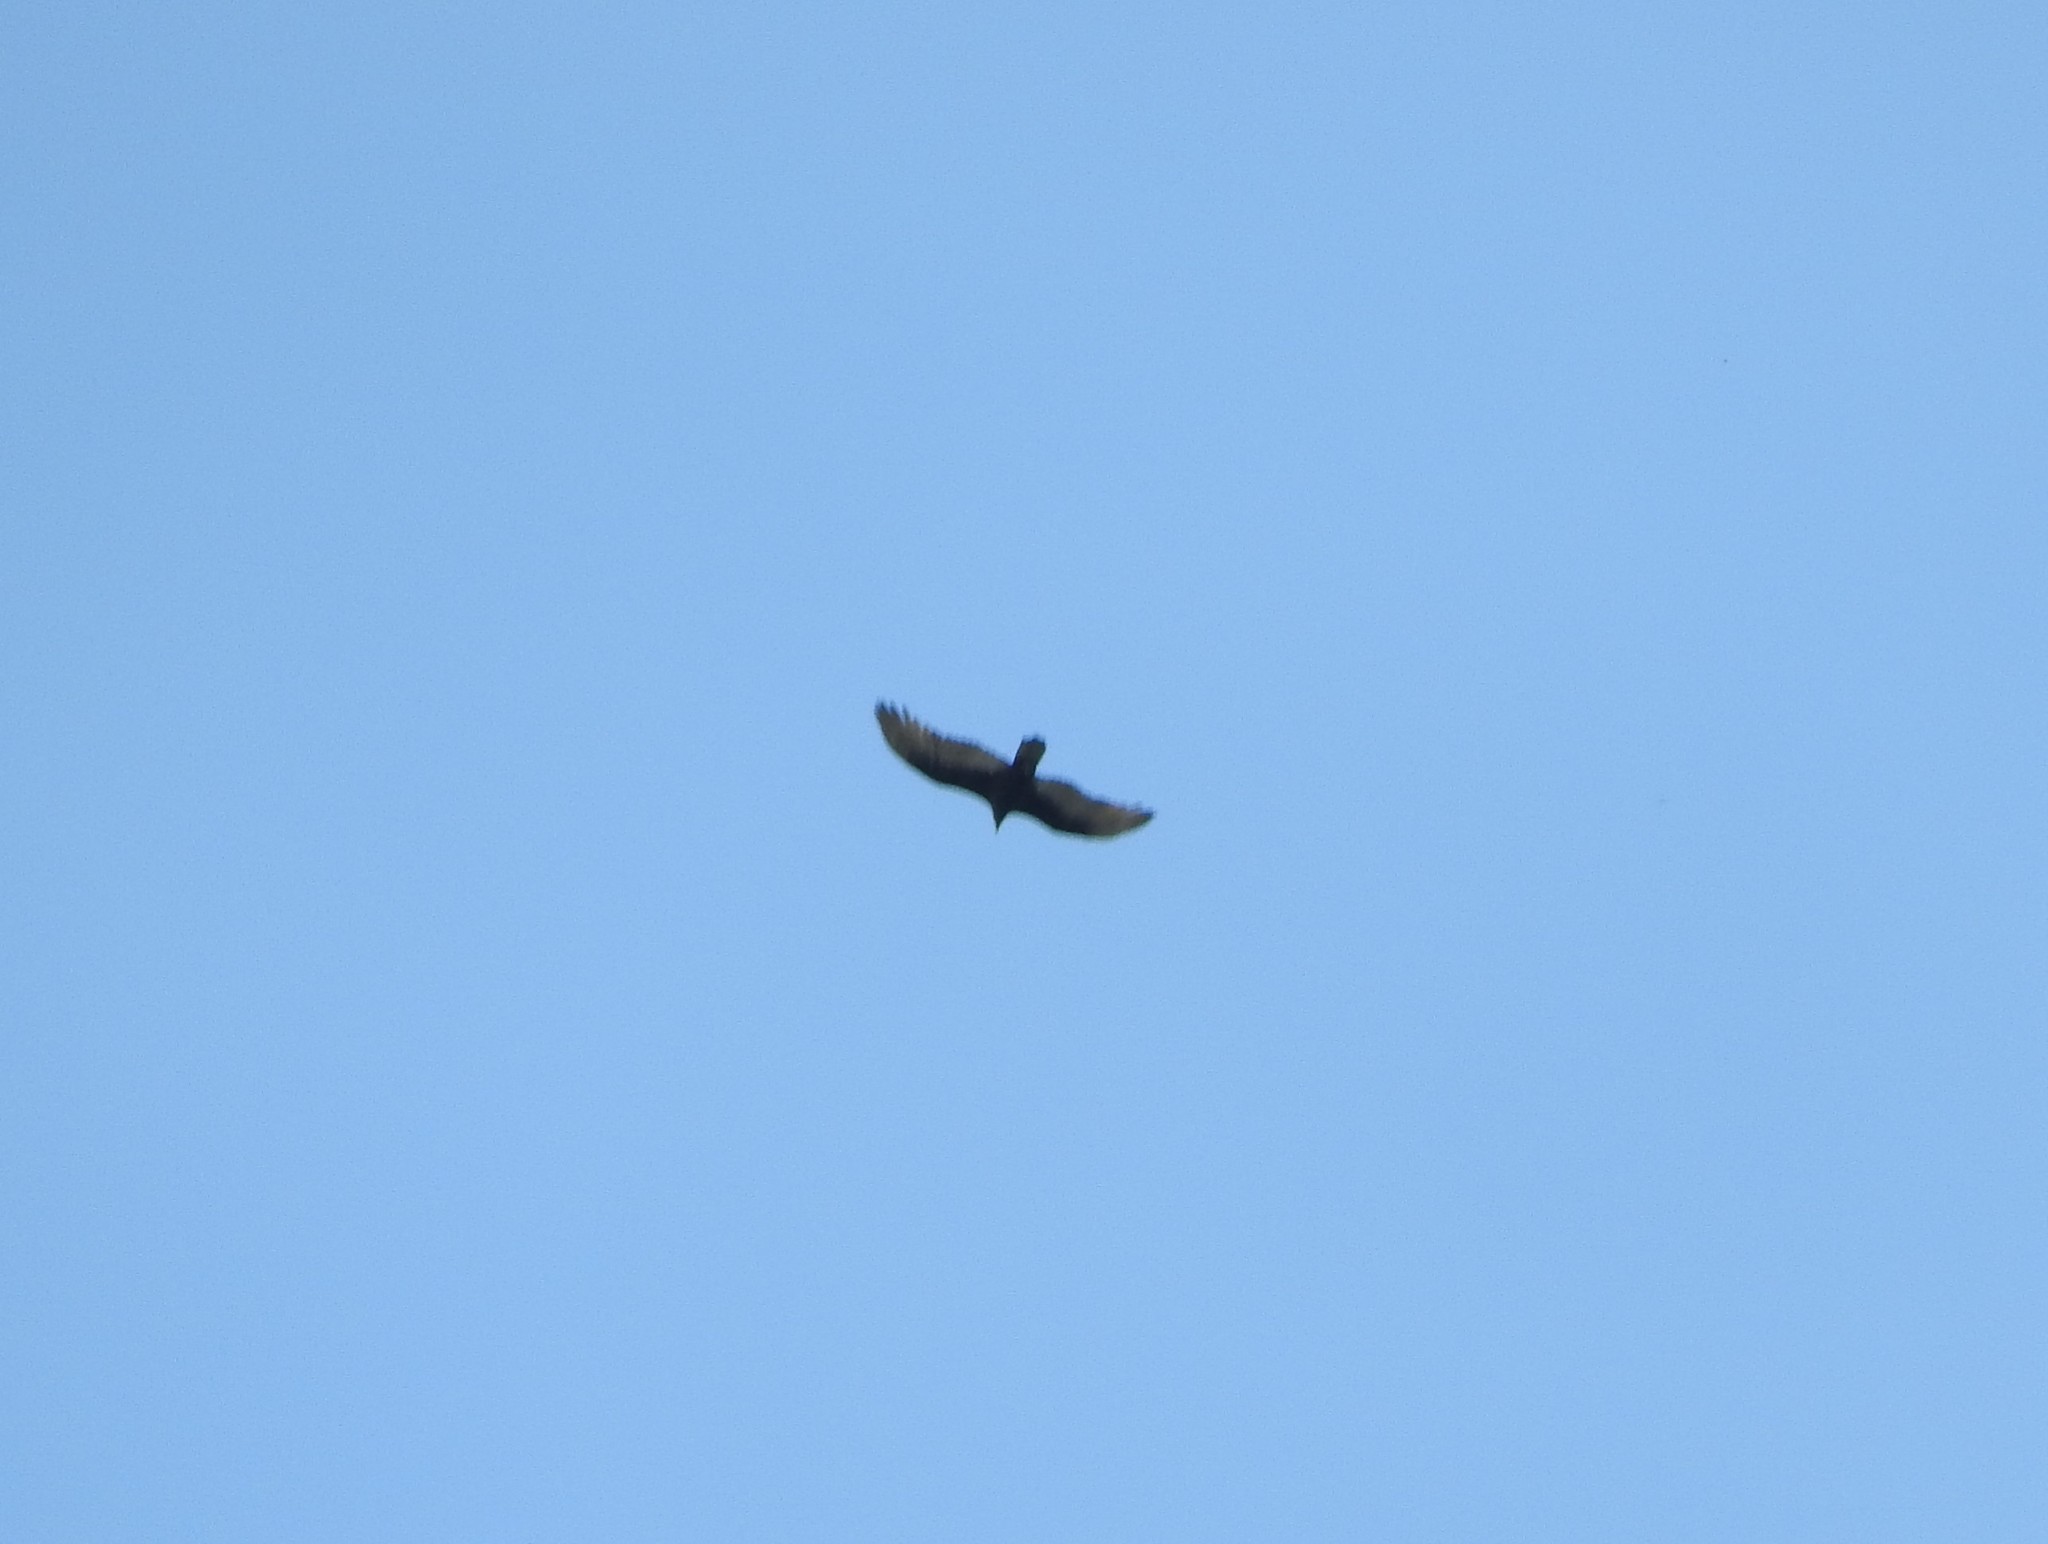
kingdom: Animalia
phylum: Chordata
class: Aves
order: Accipitriformes
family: Cathartidae
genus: Cathartes
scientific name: Cathartes aura
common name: Turkey vulture
